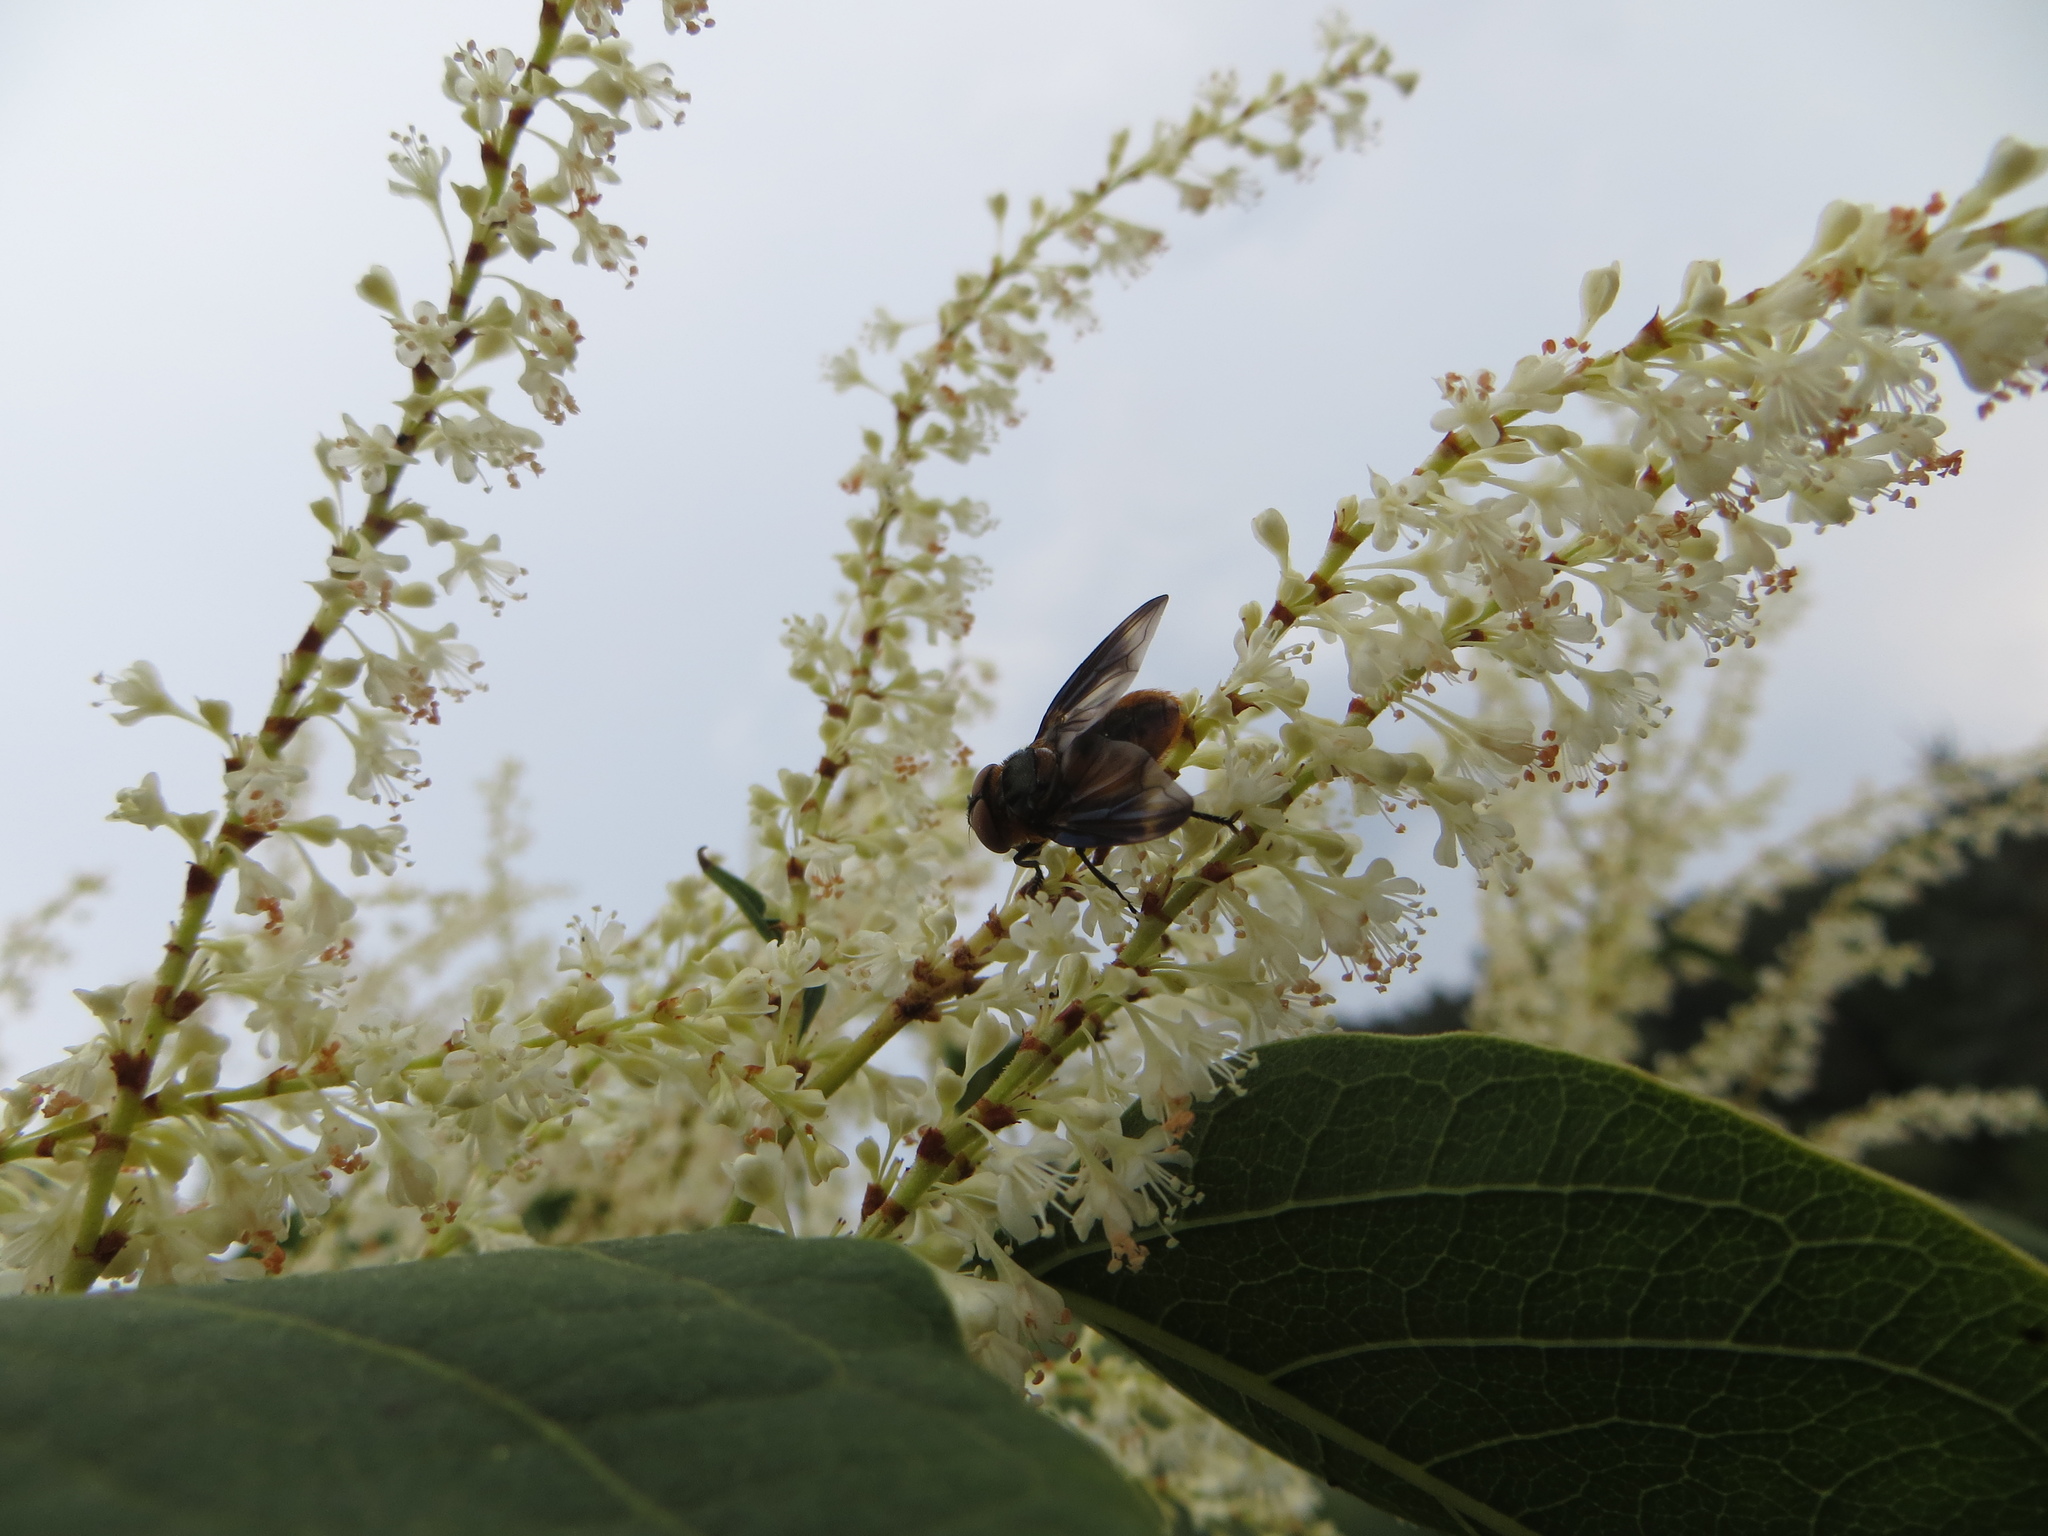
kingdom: Animalia
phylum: Arthropoda
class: Insecta
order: Diptera
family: Tachinidae
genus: Phasia
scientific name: Phasia hemiptera
